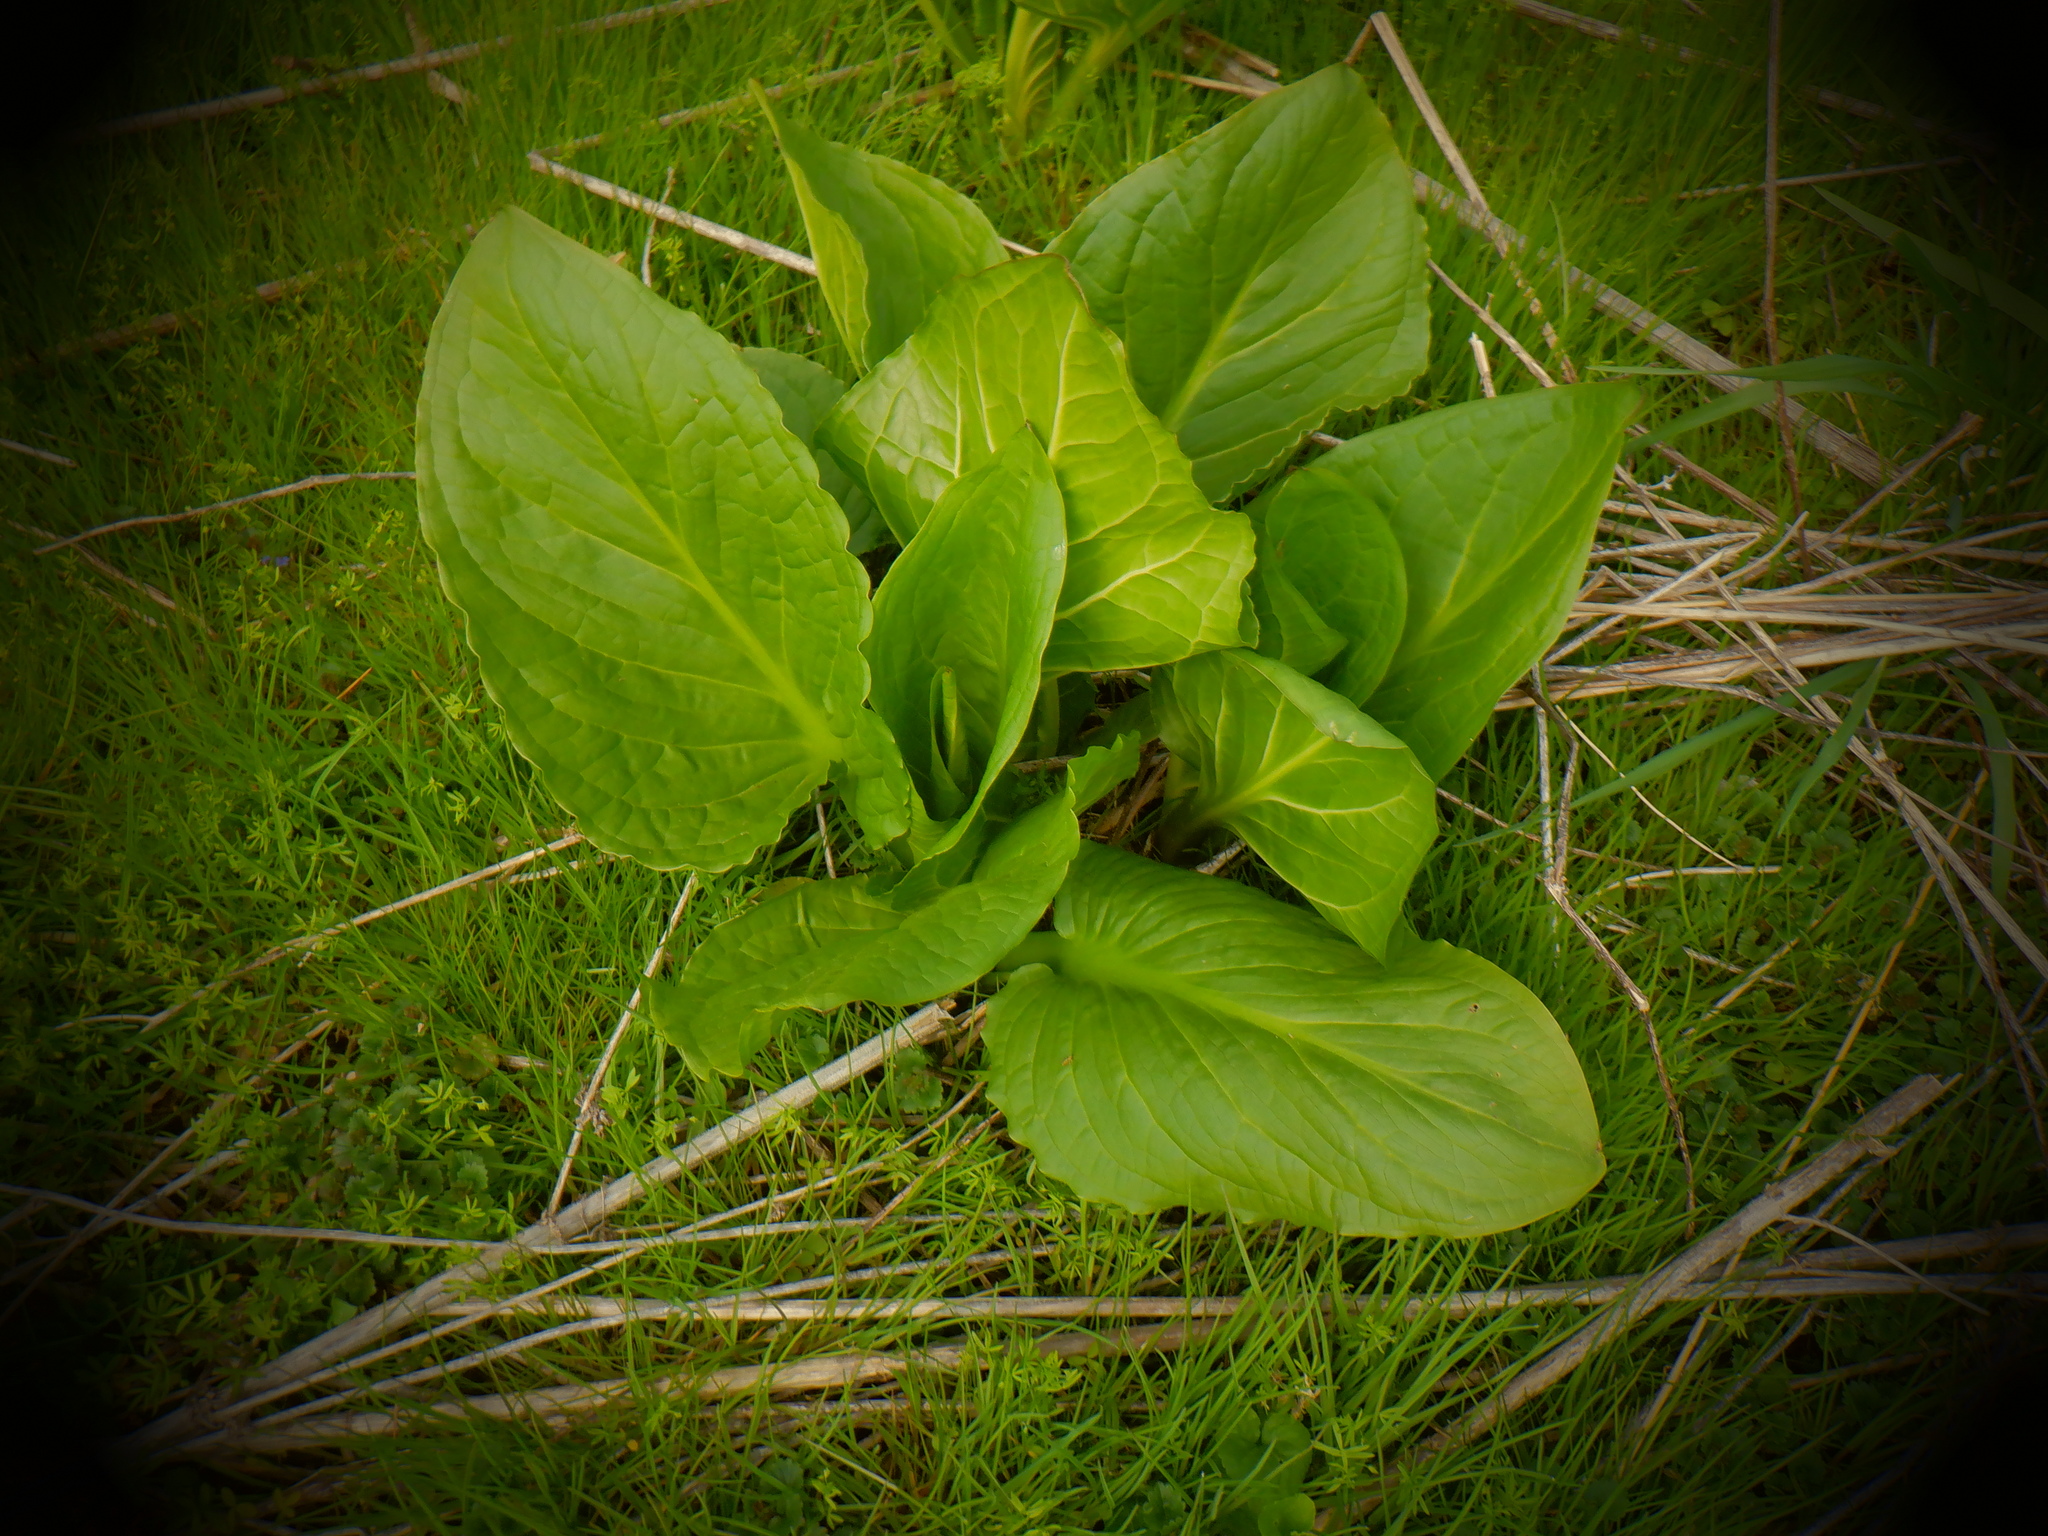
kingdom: Plantae
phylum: Tracheophyta
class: Liliopsida
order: Alismatales
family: Araceae
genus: Symplocarpus
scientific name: Symplocarpus foetidus
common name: Eastern skunk cabbage
